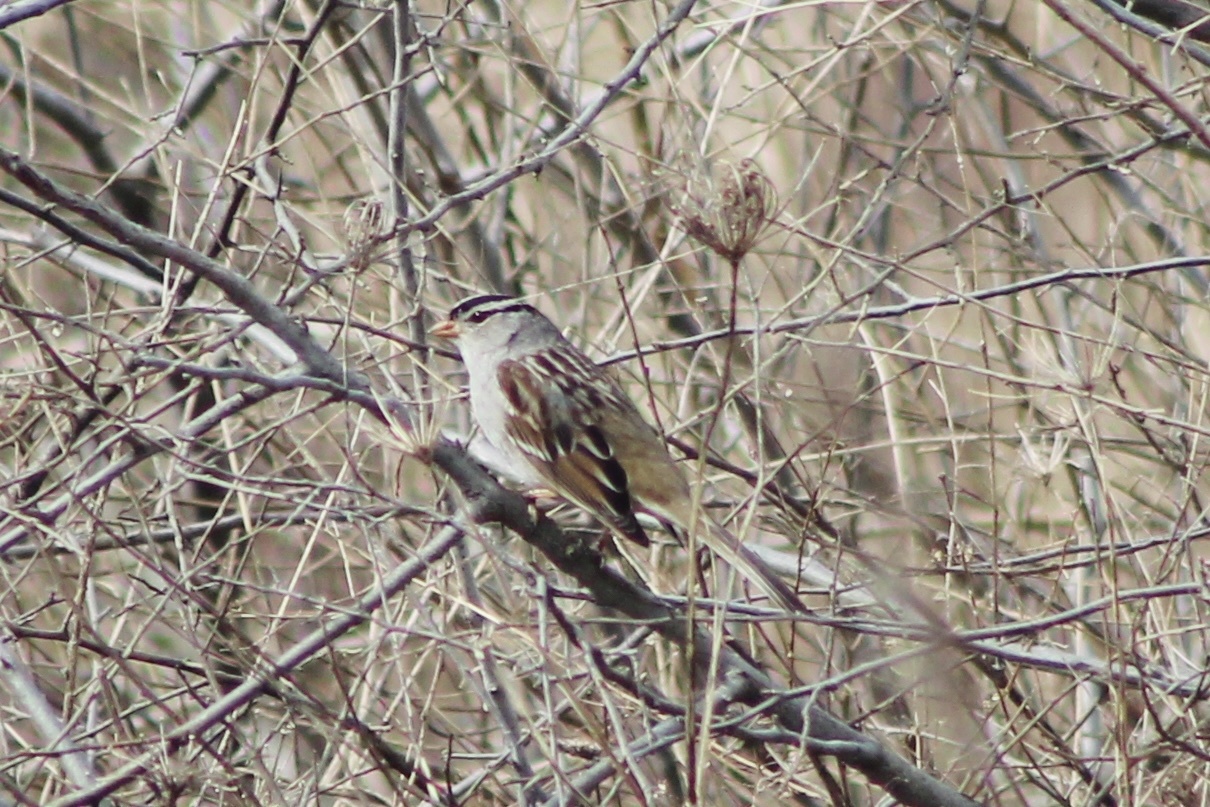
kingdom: Animalia
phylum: Chordata
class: Aves
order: Passeriformes
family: Passerellidae
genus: Zonotrichia
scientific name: Zonotrichia leucophrys
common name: White-crowned sparrow
